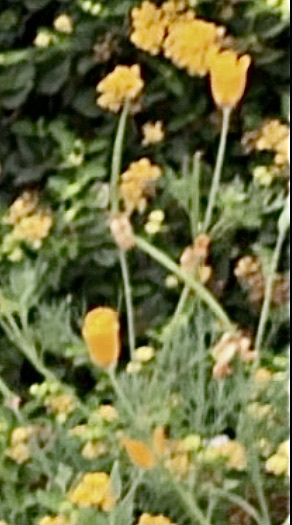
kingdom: Plantae
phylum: Tracheophyta
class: Magnoliopsida
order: Ranunculales
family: Papaveraceae
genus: Eschscholzia
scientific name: Eschscholzia californica
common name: California poppy
